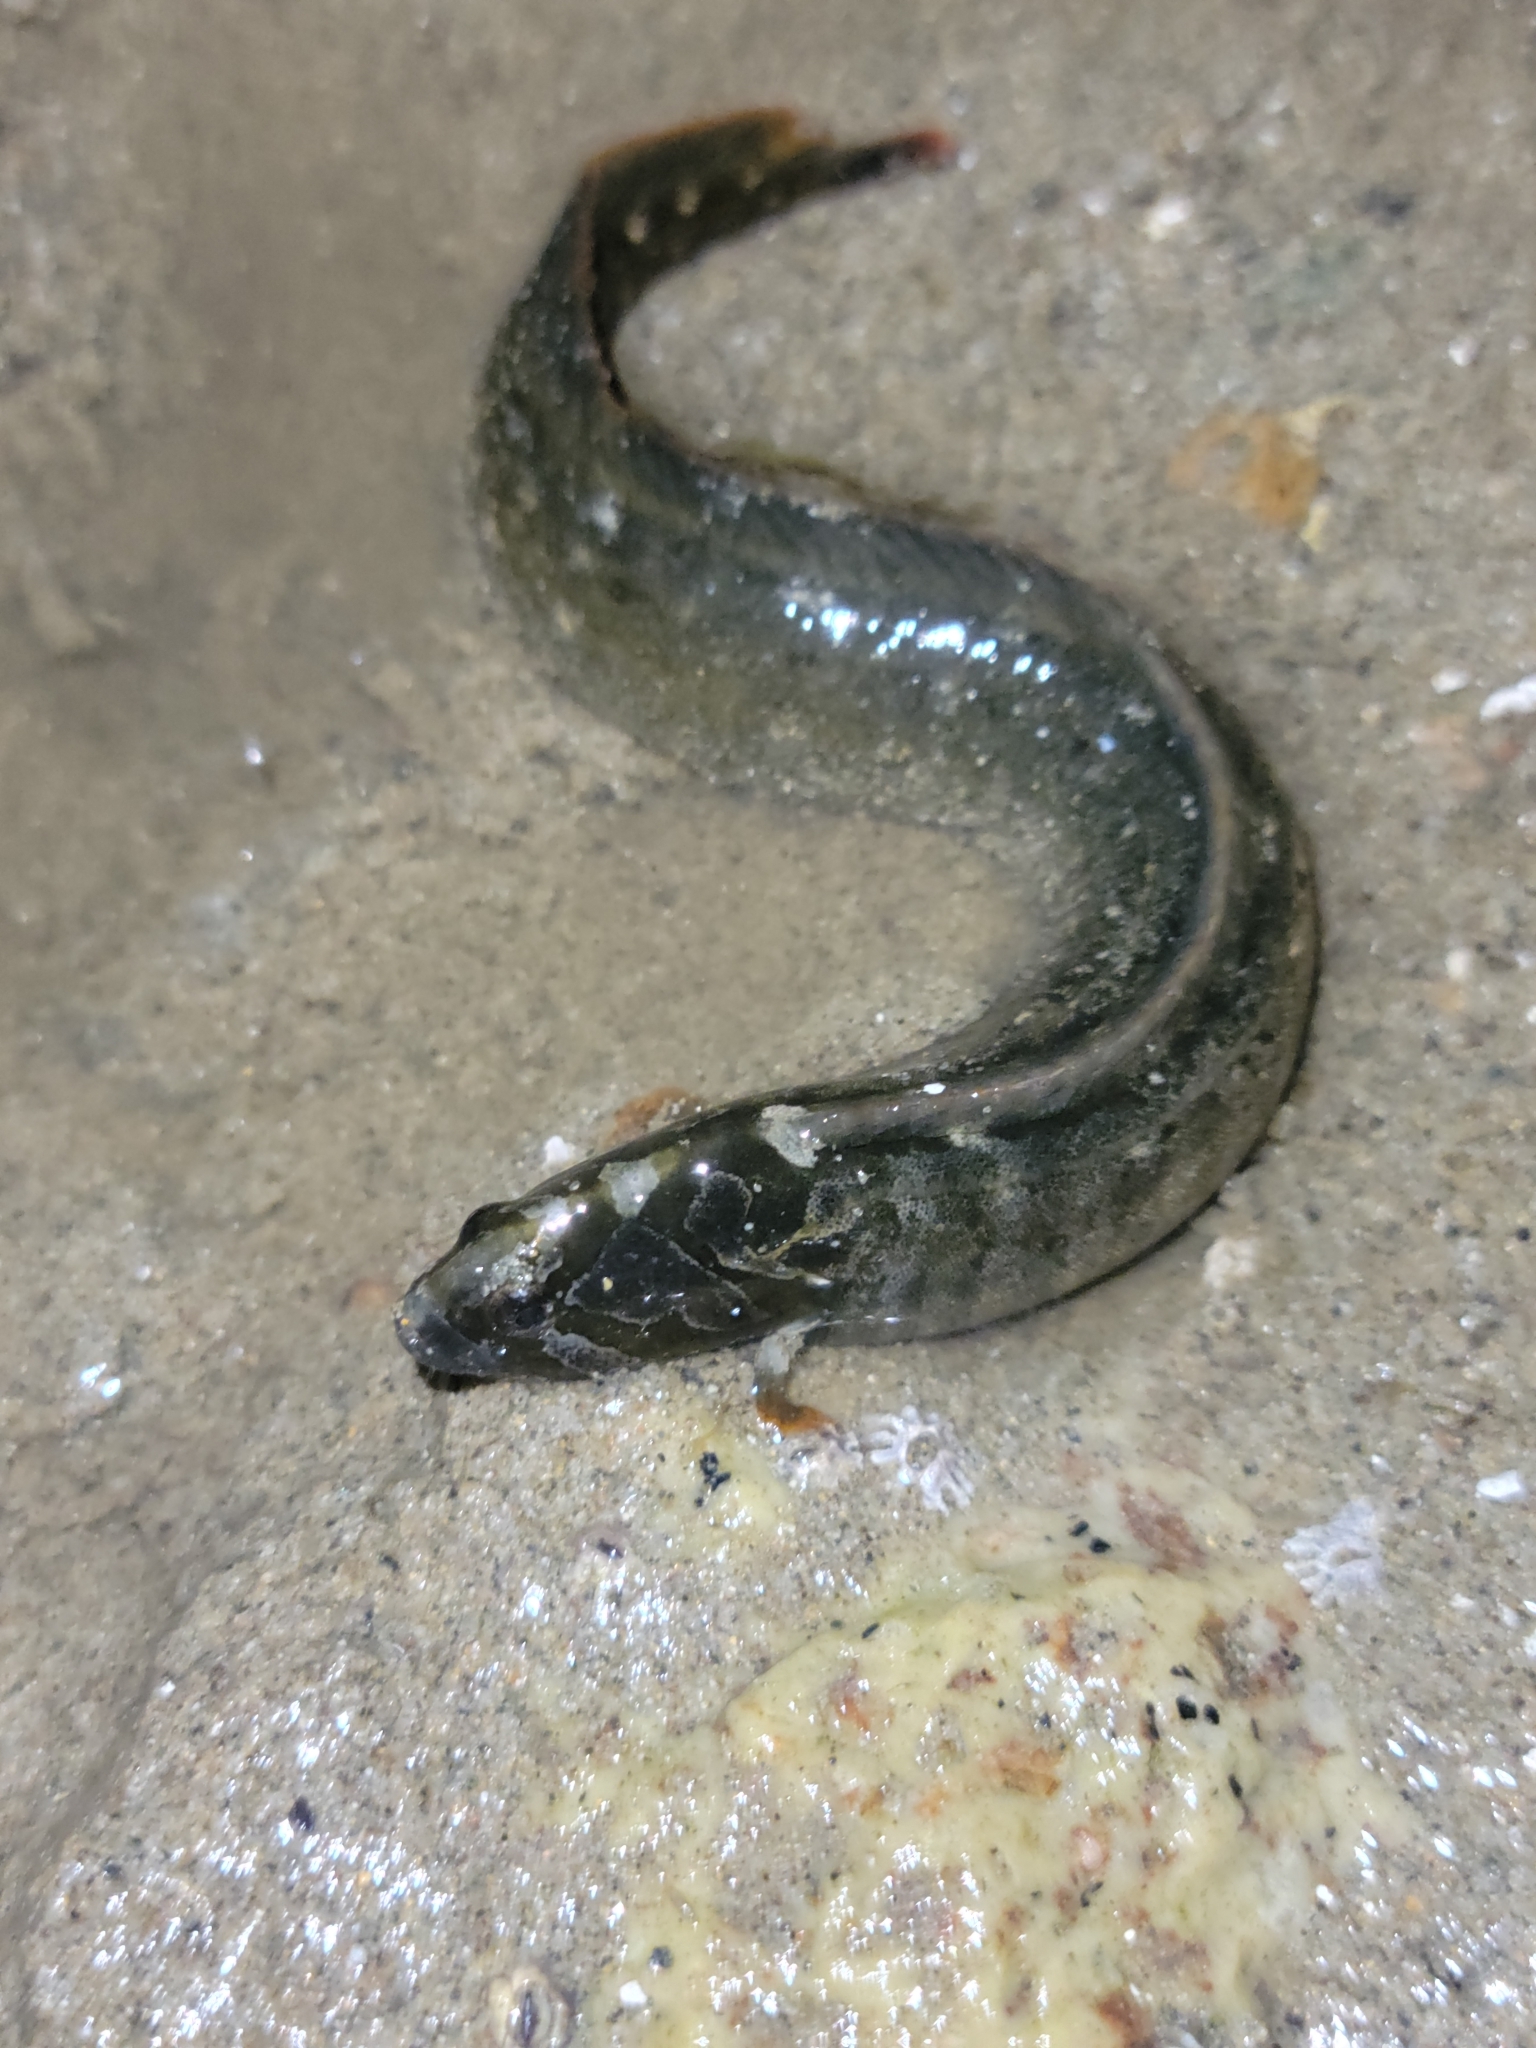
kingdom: Animalia
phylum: Chordata
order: Perciformes
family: Stichaeidae
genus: Cebidichthys
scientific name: Cebidichthys violaceus
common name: Monkeyface prickleback
